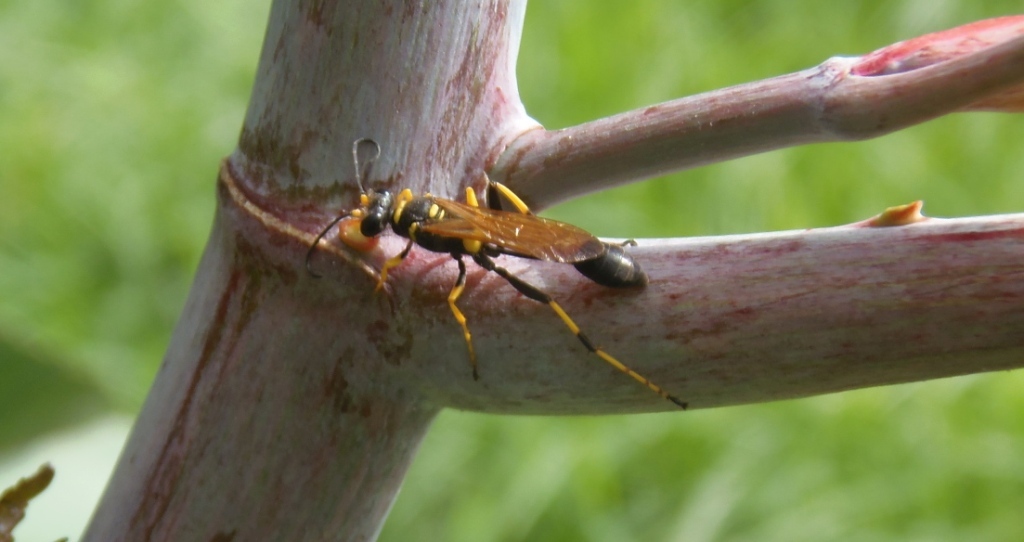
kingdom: Animalia
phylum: Arthropoda
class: Insecta
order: Hymenoptera
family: Sphecidae
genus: Sceliphron
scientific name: Sceliphron caementarium
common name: Mud dauber
